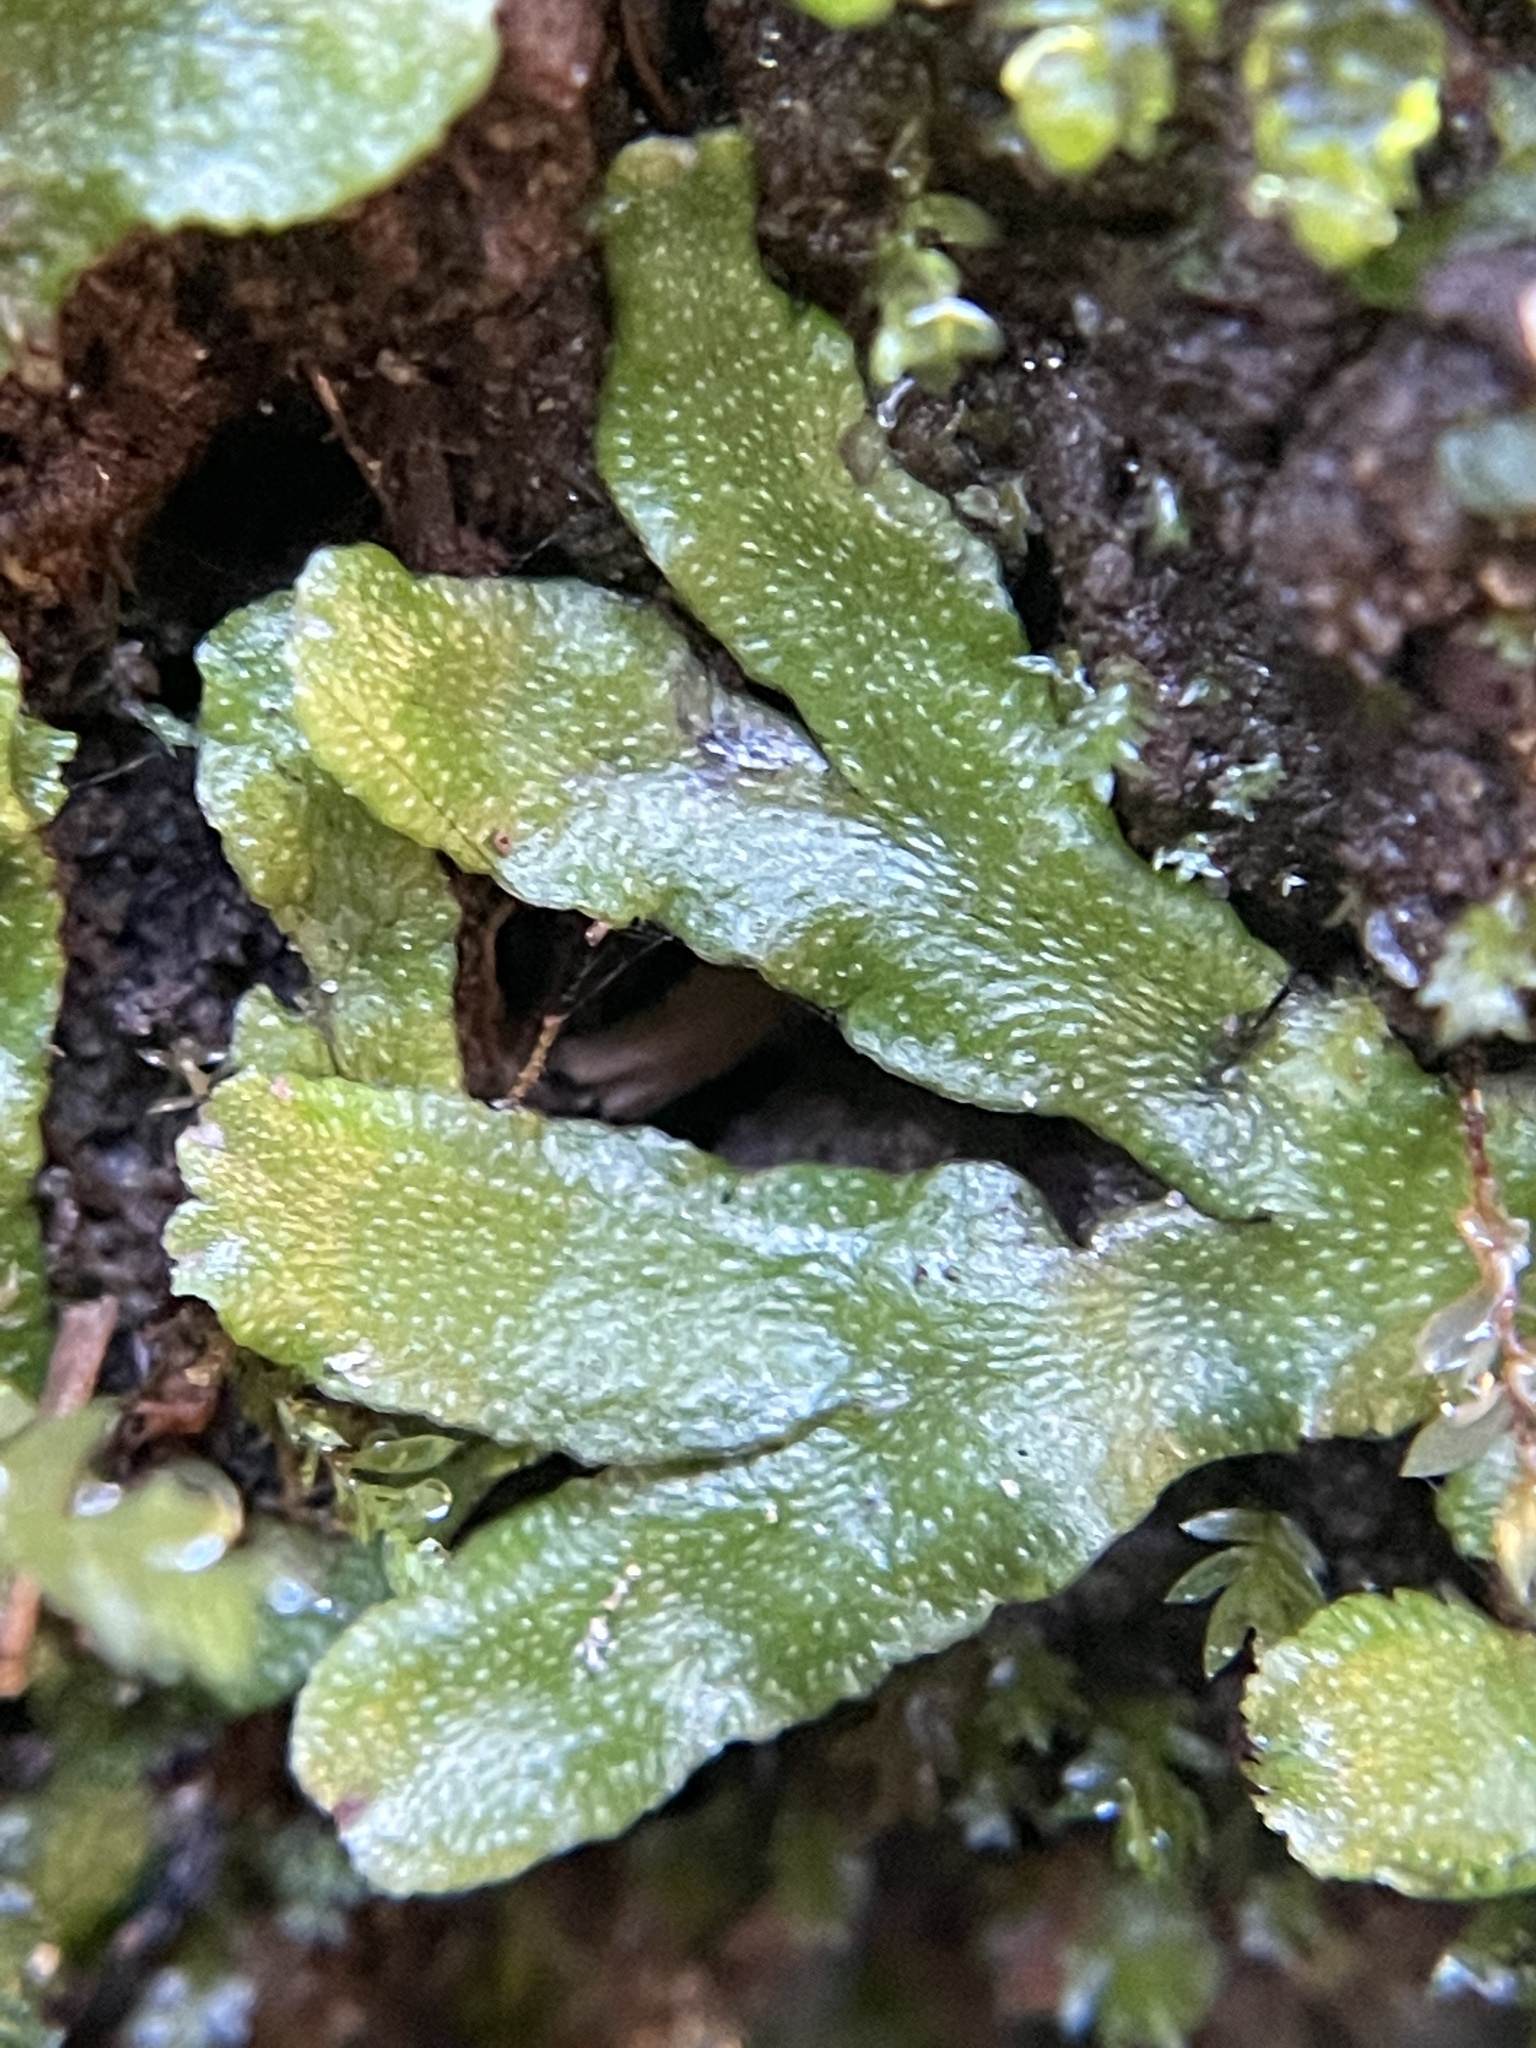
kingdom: Plantae
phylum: Marchantiophyta
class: Marchantiopsida
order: Marchantiales
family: Targioniaceae
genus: Targionia
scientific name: Targionia hypophylla
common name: Orobus-seed liverwort
